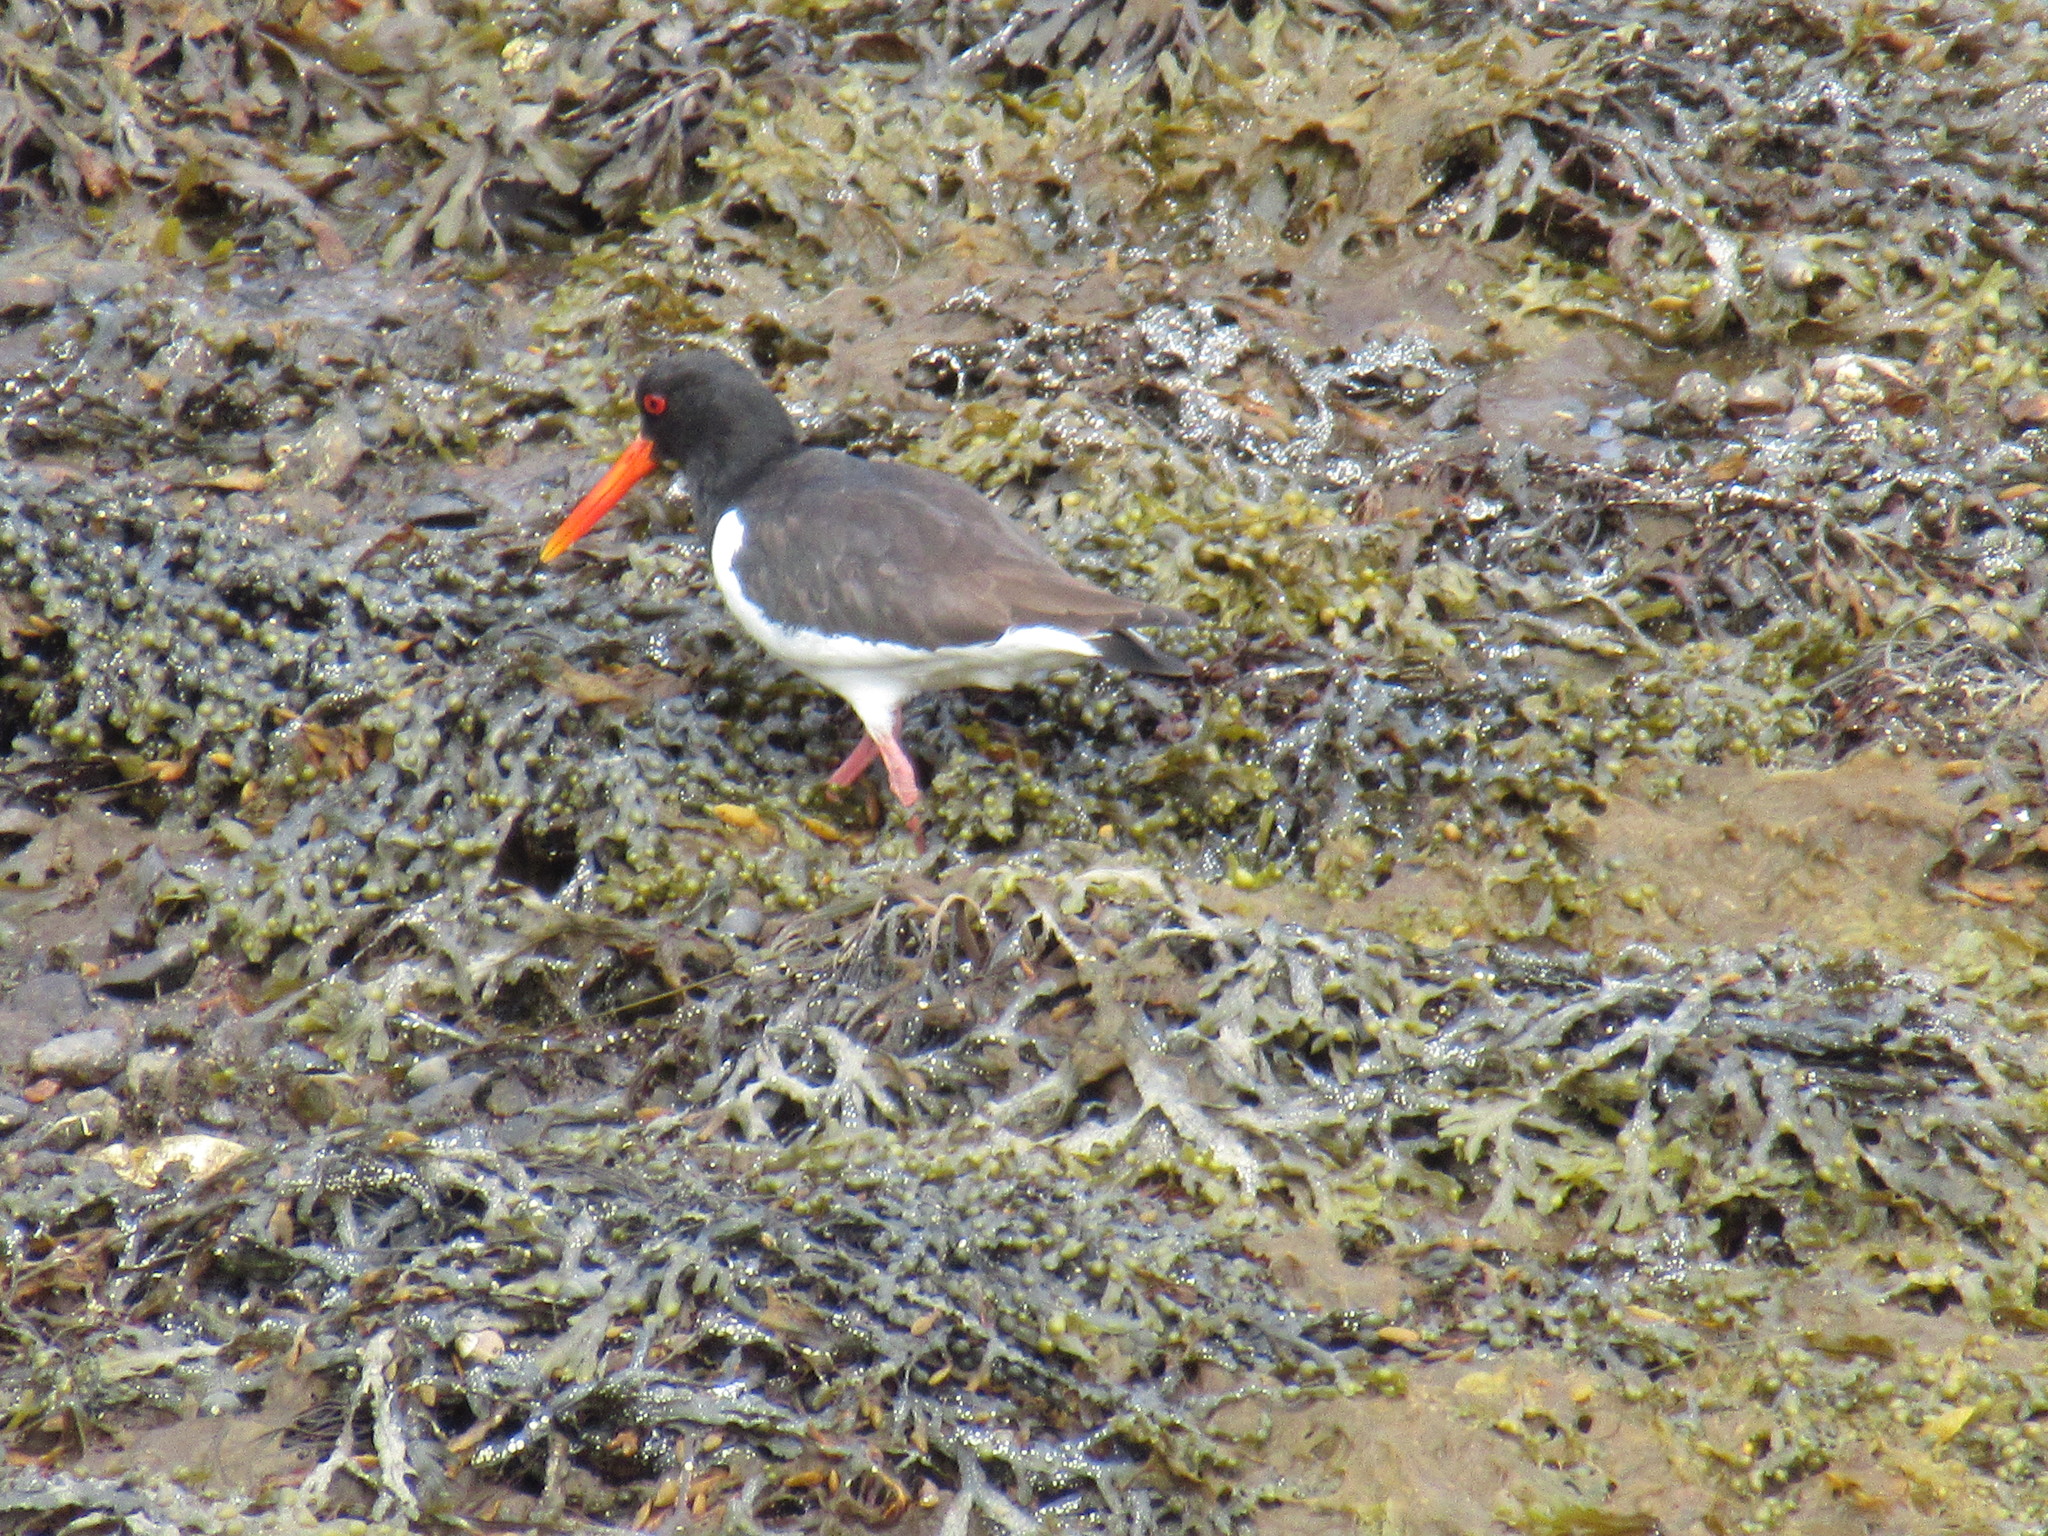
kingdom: Animalia
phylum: Chordata
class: Aves
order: Charadriiformes
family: Haematopodidae
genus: Haematopus
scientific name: Haematopus ostralegus
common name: Eurasian oystercatcher
